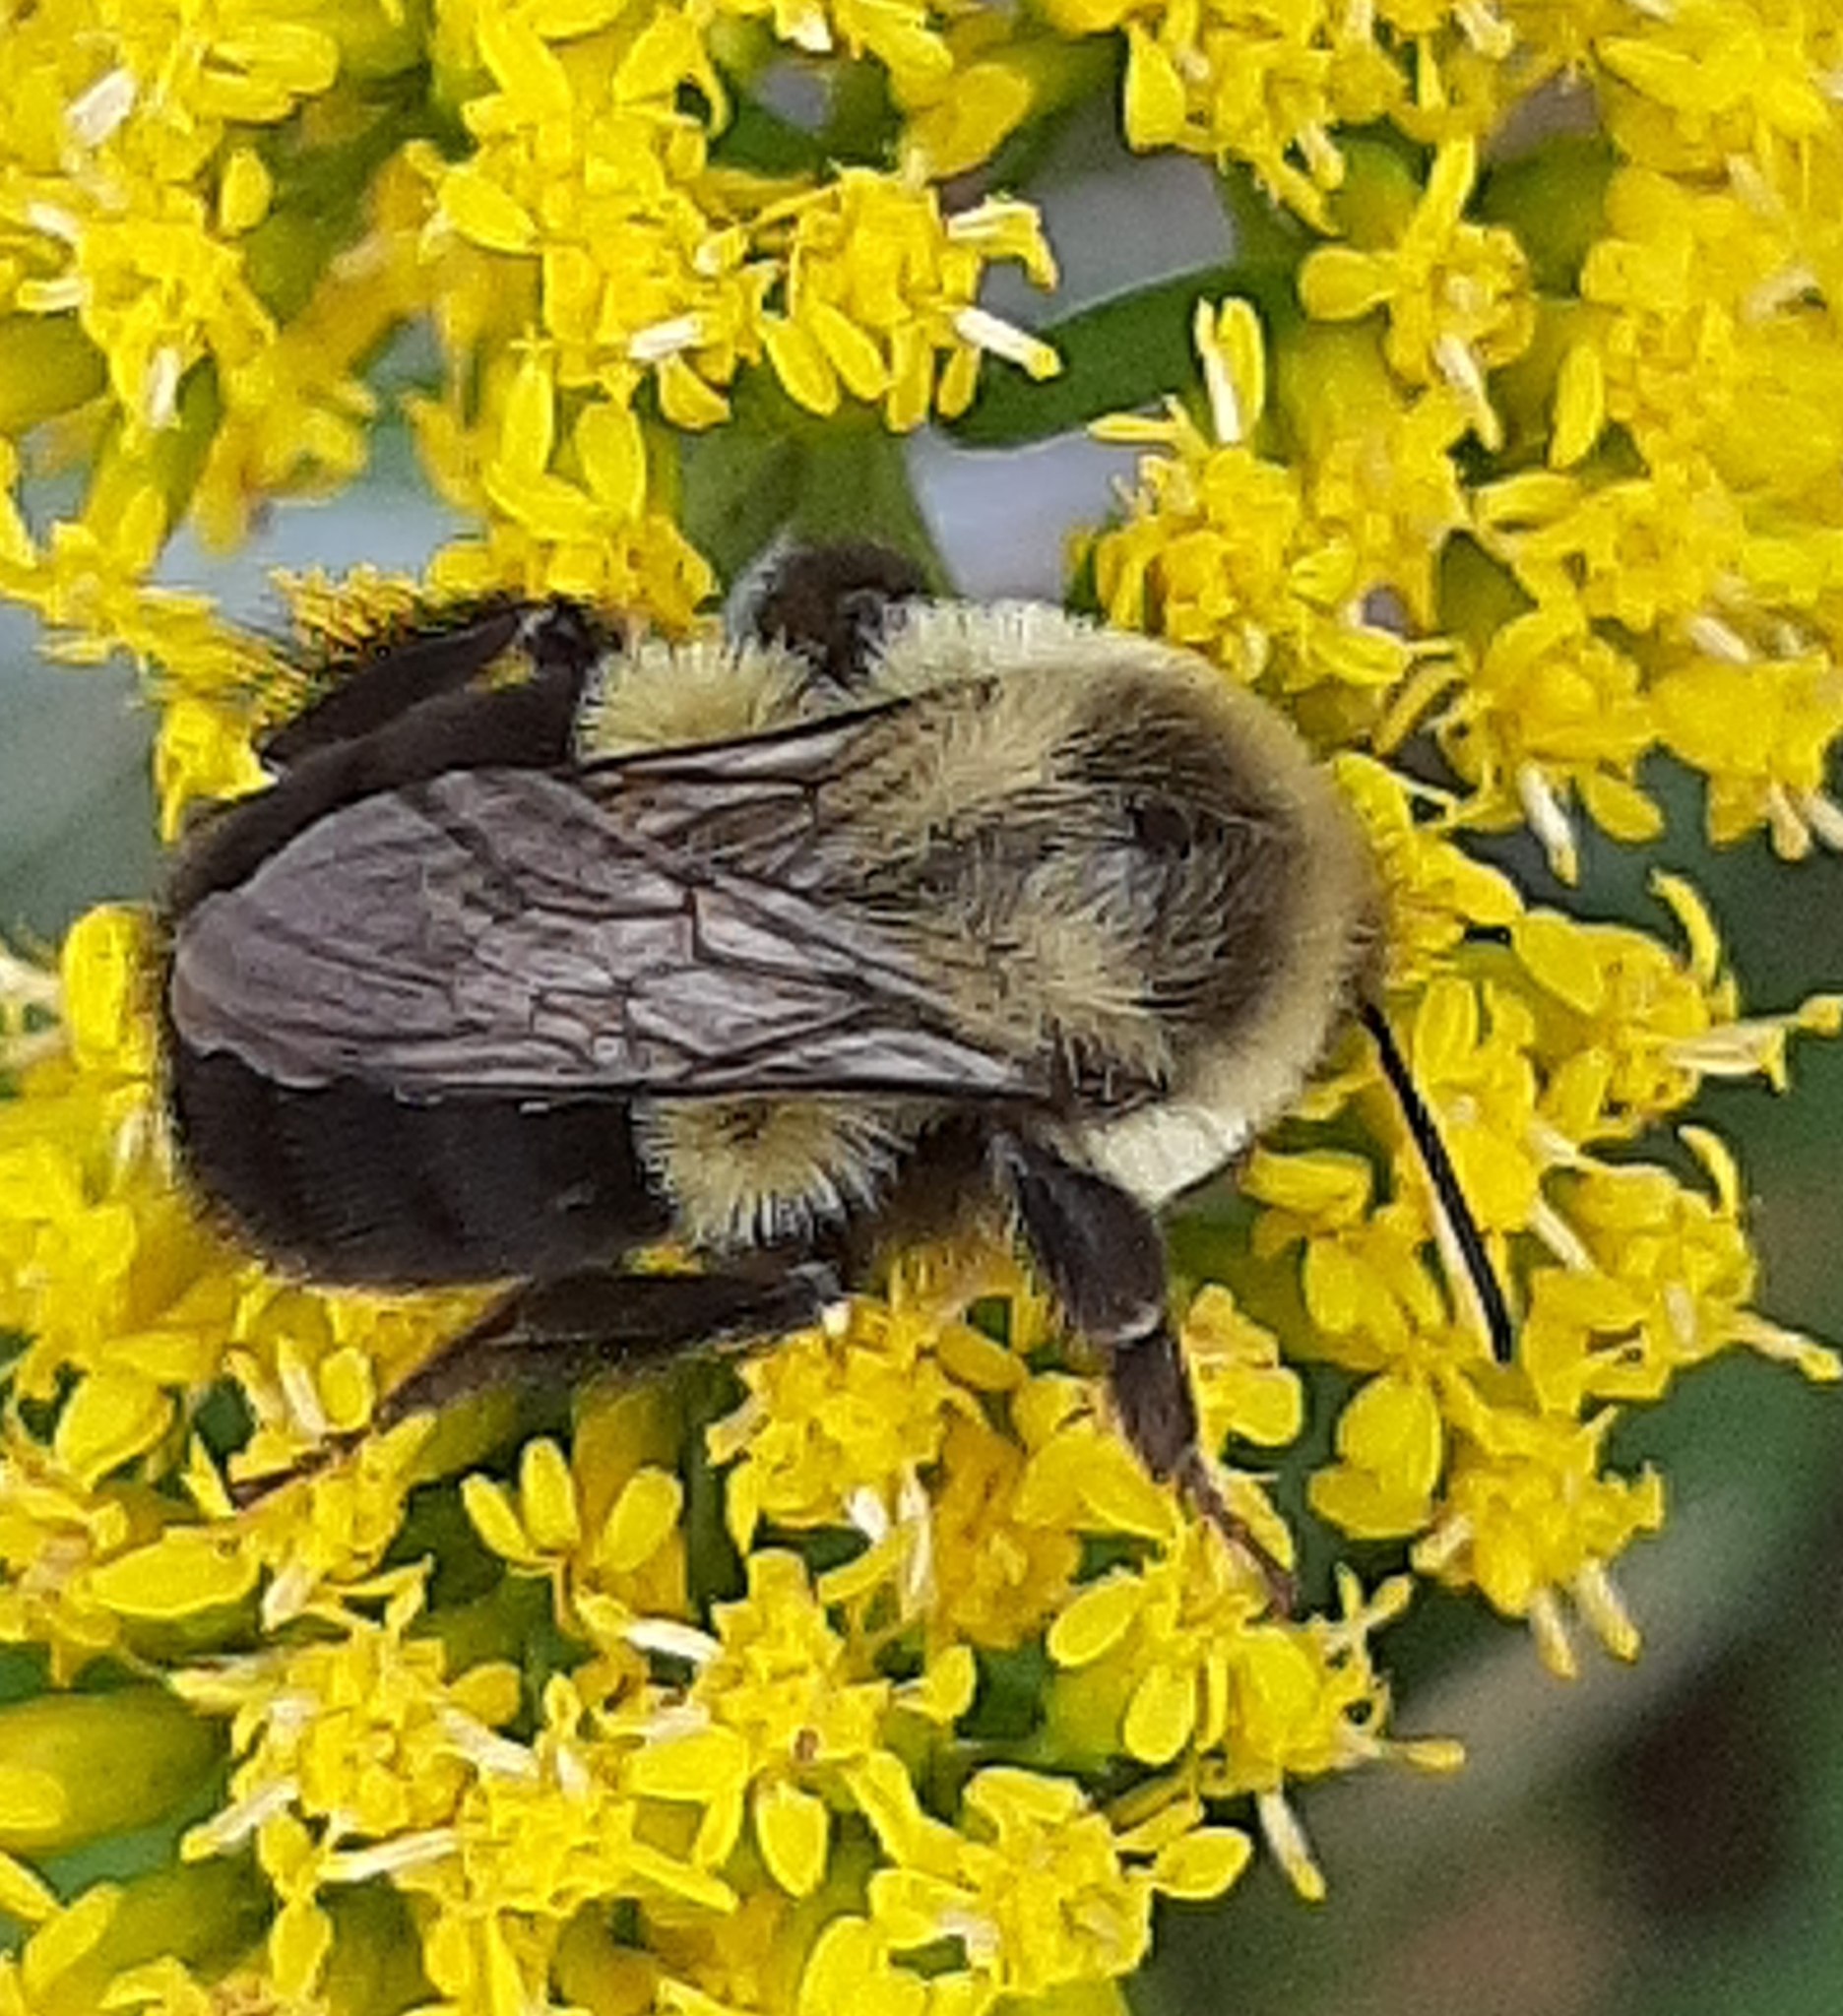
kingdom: Animalia
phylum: Arthropoda
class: Insecta
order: Hymenoptera
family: Apidae
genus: Bombus
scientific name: Bombus impatiens
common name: Common eastern bumble bee
